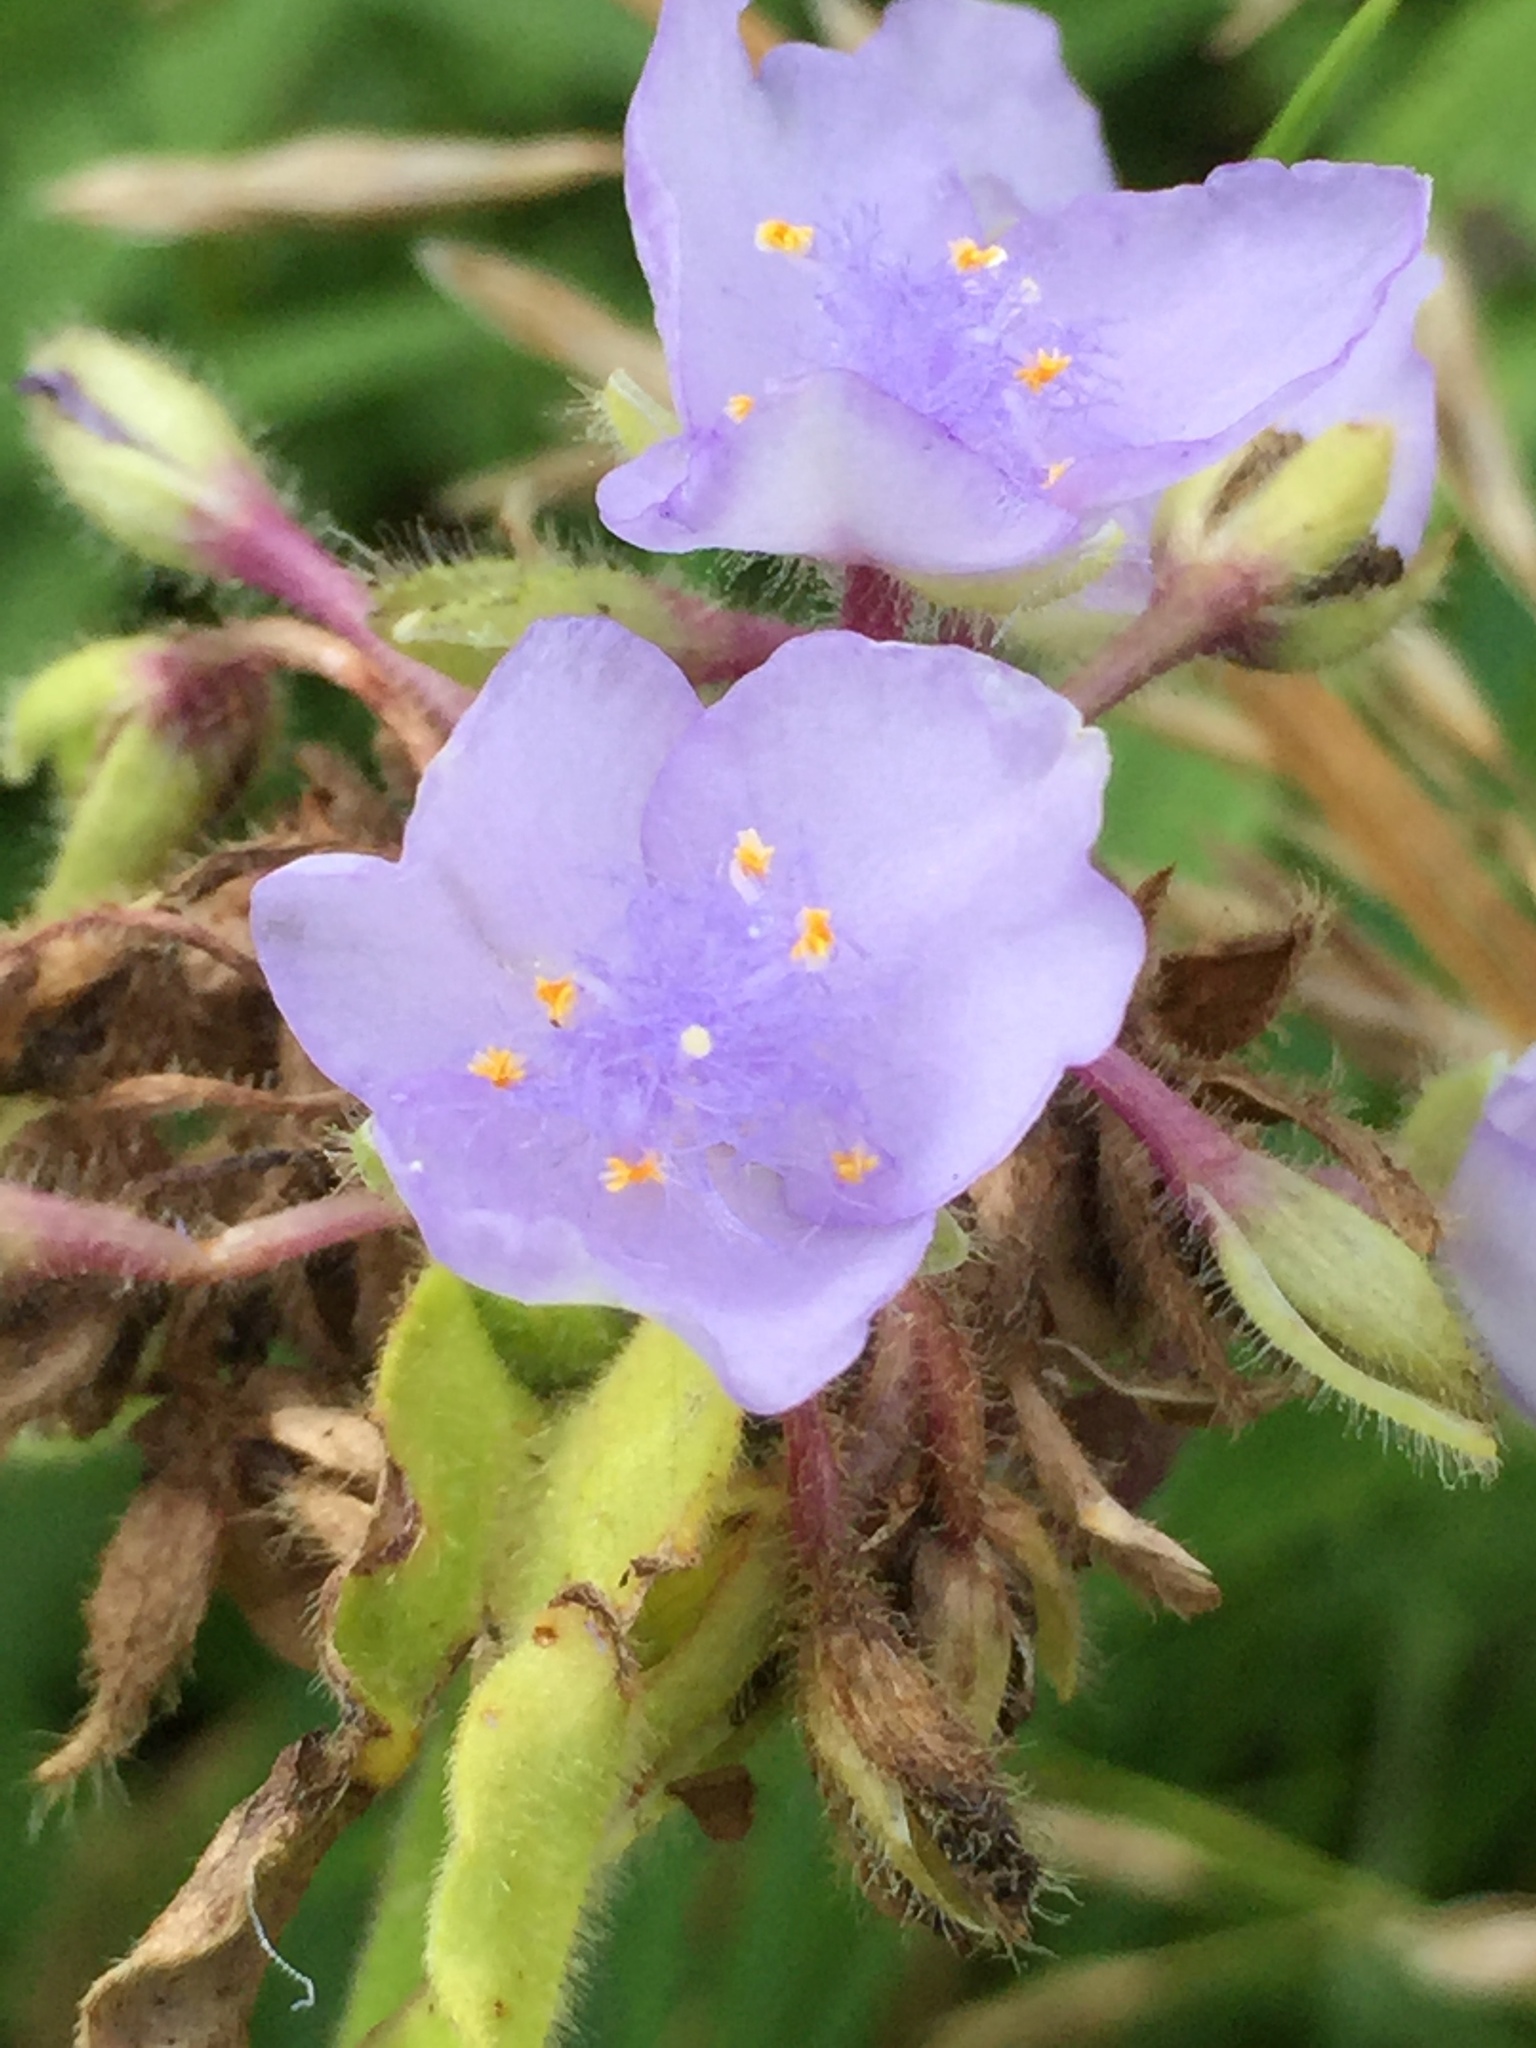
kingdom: Plantae
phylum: Tracheophyta
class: Liliopsida
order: Commelinales
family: Commelinaceae
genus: Tradescantia
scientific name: Tradescantia subaspera
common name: Wide-leaf spiderwort
